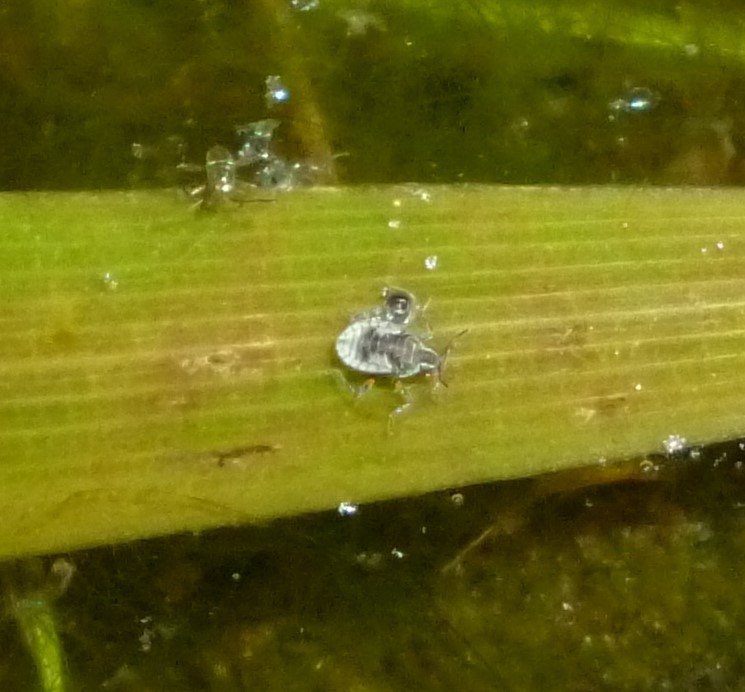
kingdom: Animalia
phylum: Arthropoda
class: Insecta
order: Hemiptera
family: Veliidae
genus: Microvelia
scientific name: Microvelia
